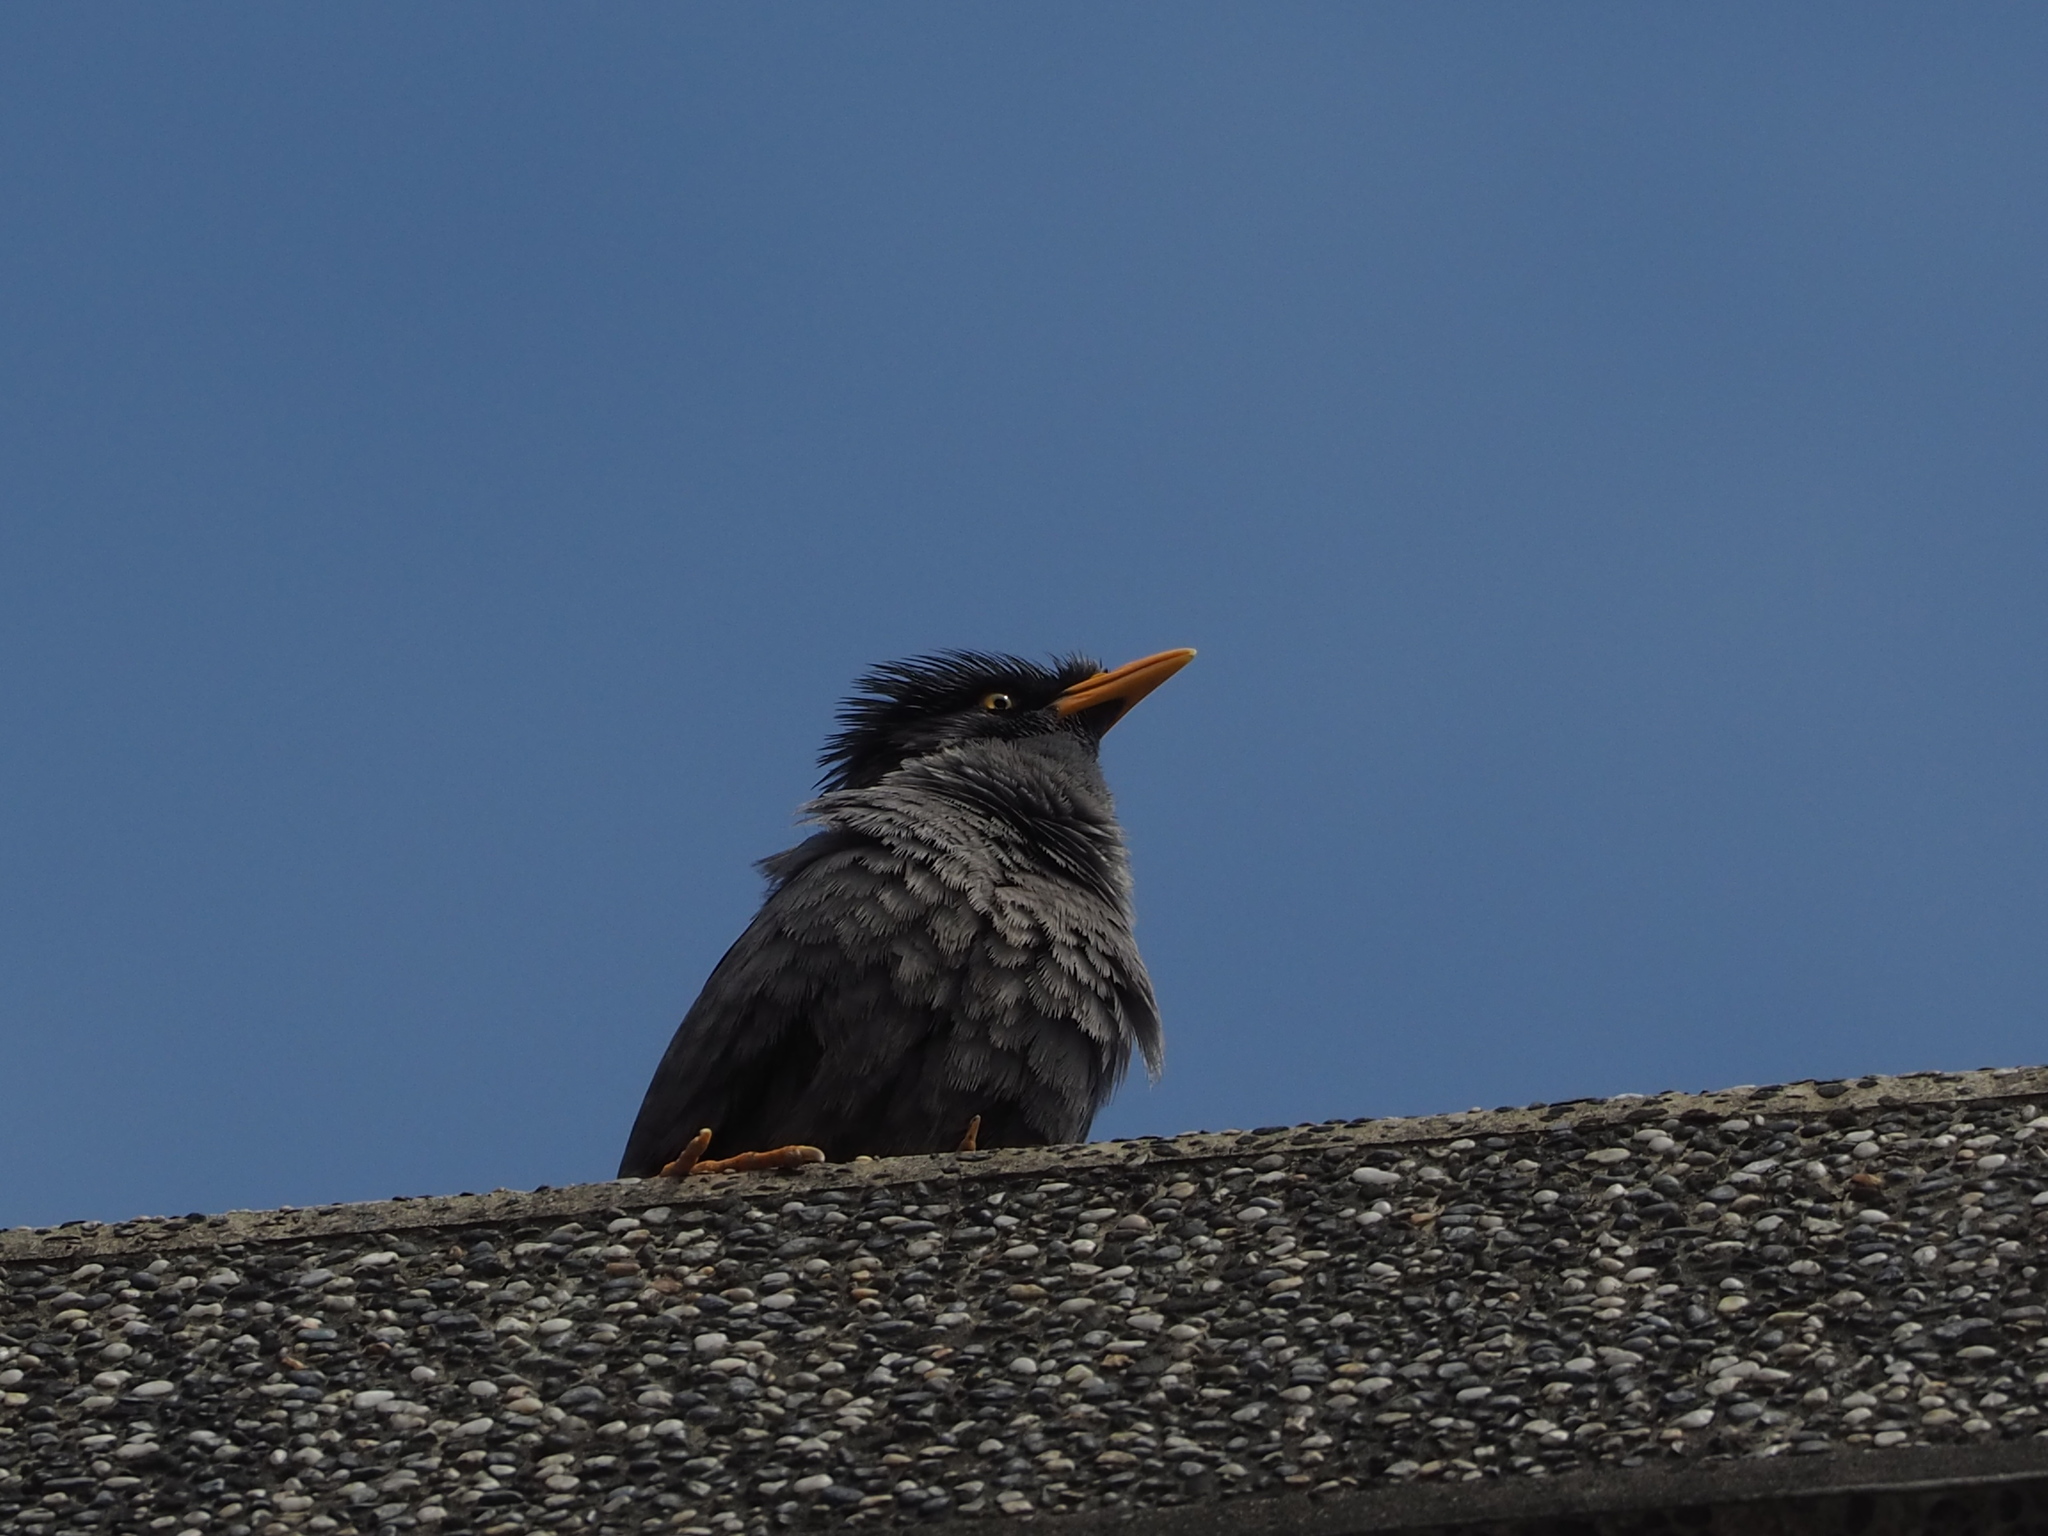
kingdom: Animalia
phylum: Chordata
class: Aves
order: Passeriformes
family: Sturnidae
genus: Acridotheres
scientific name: Acridotheres javanicus
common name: Javan myna
